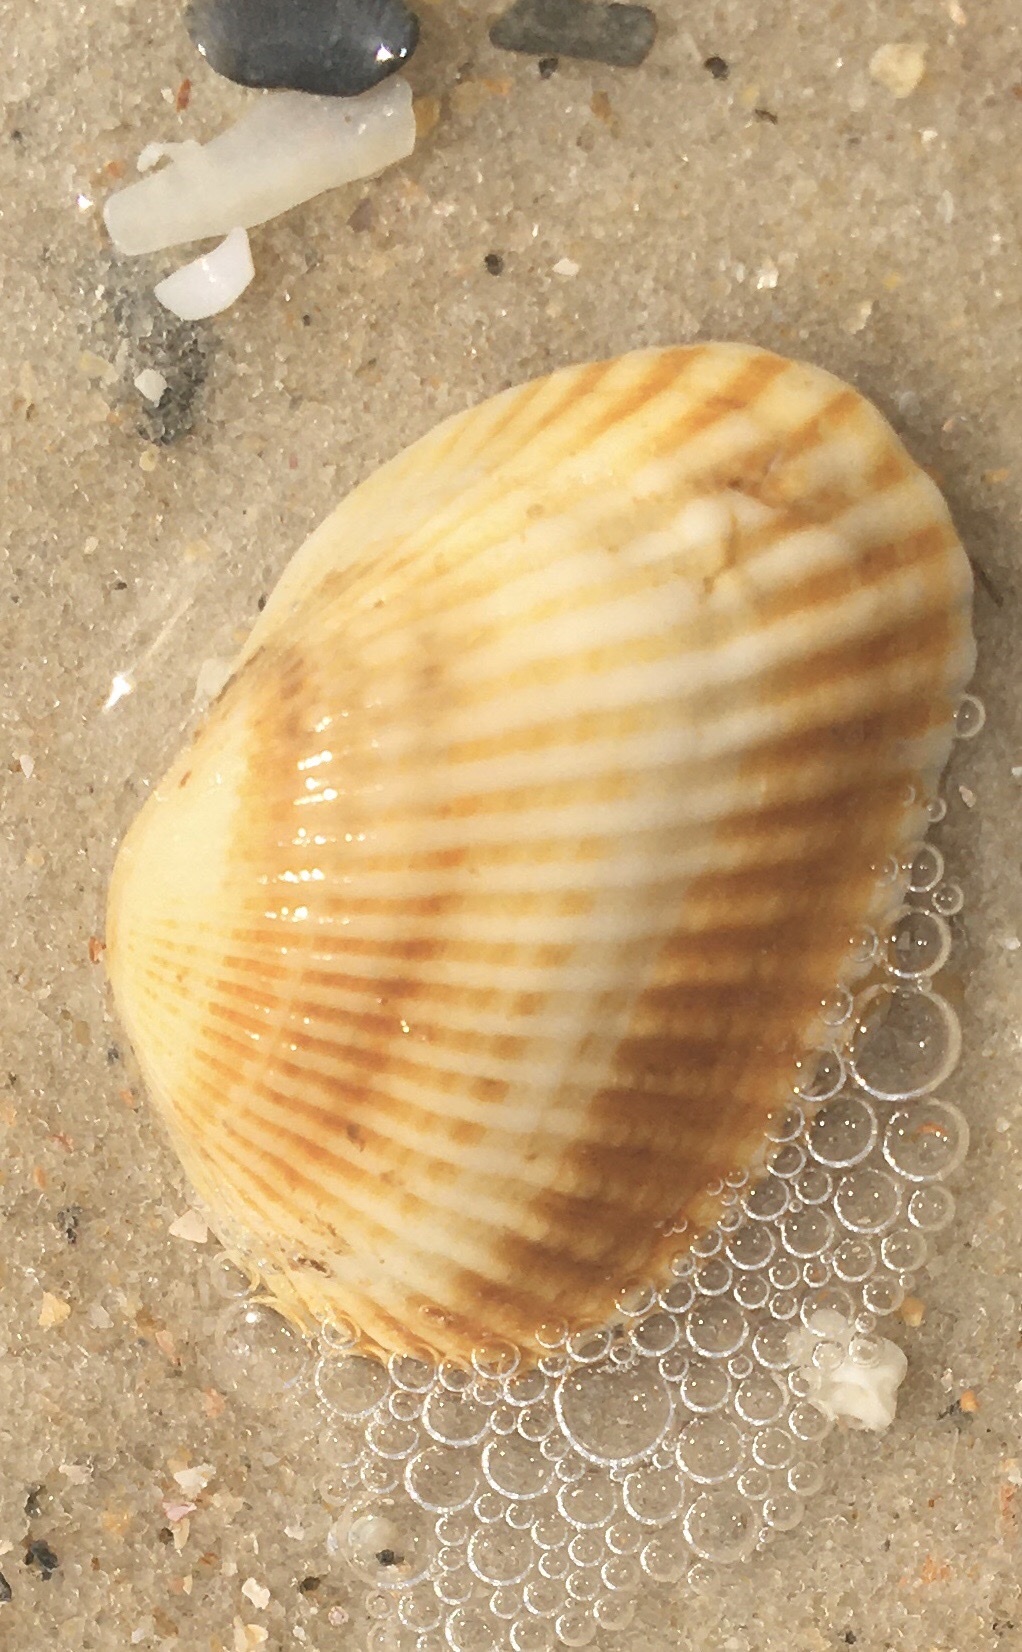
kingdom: Animalia
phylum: Mollusca
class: Bivalvia
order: Arcida
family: Arcidae
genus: Anadara
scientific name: Anadara transversa
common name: Transverse ark
